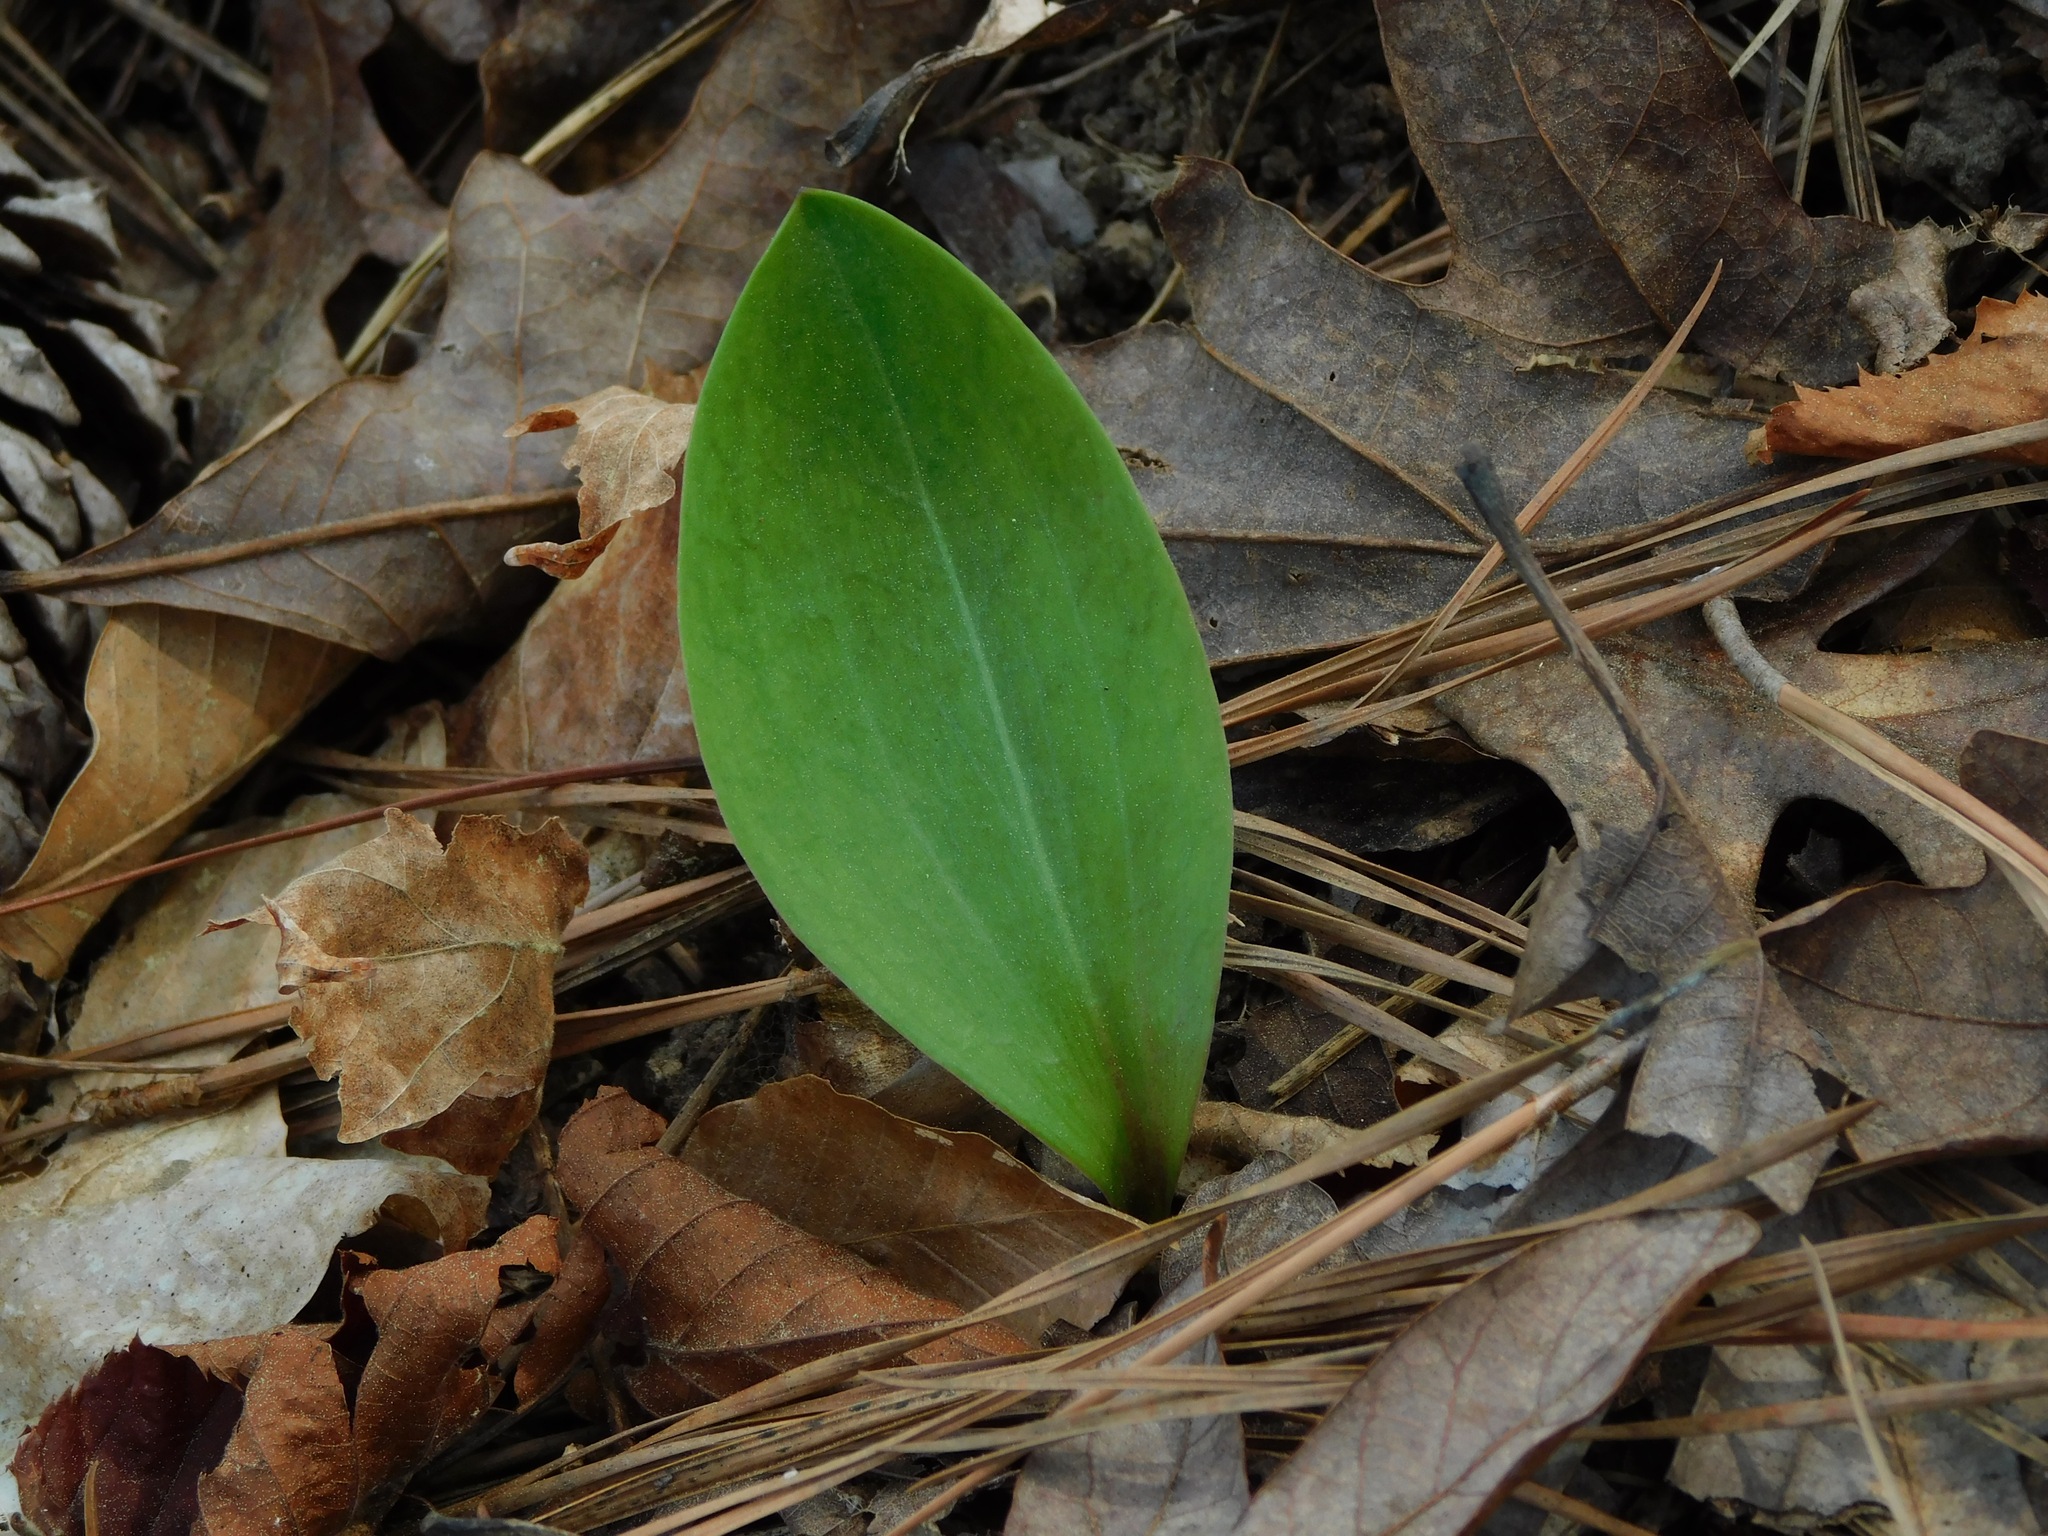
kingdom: Plantae
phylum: Tracheophyta
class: Liliopsida
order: Liliales
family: Liliaceae
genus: Lilium
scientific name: Lilium michauxii
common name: Carolina lily
